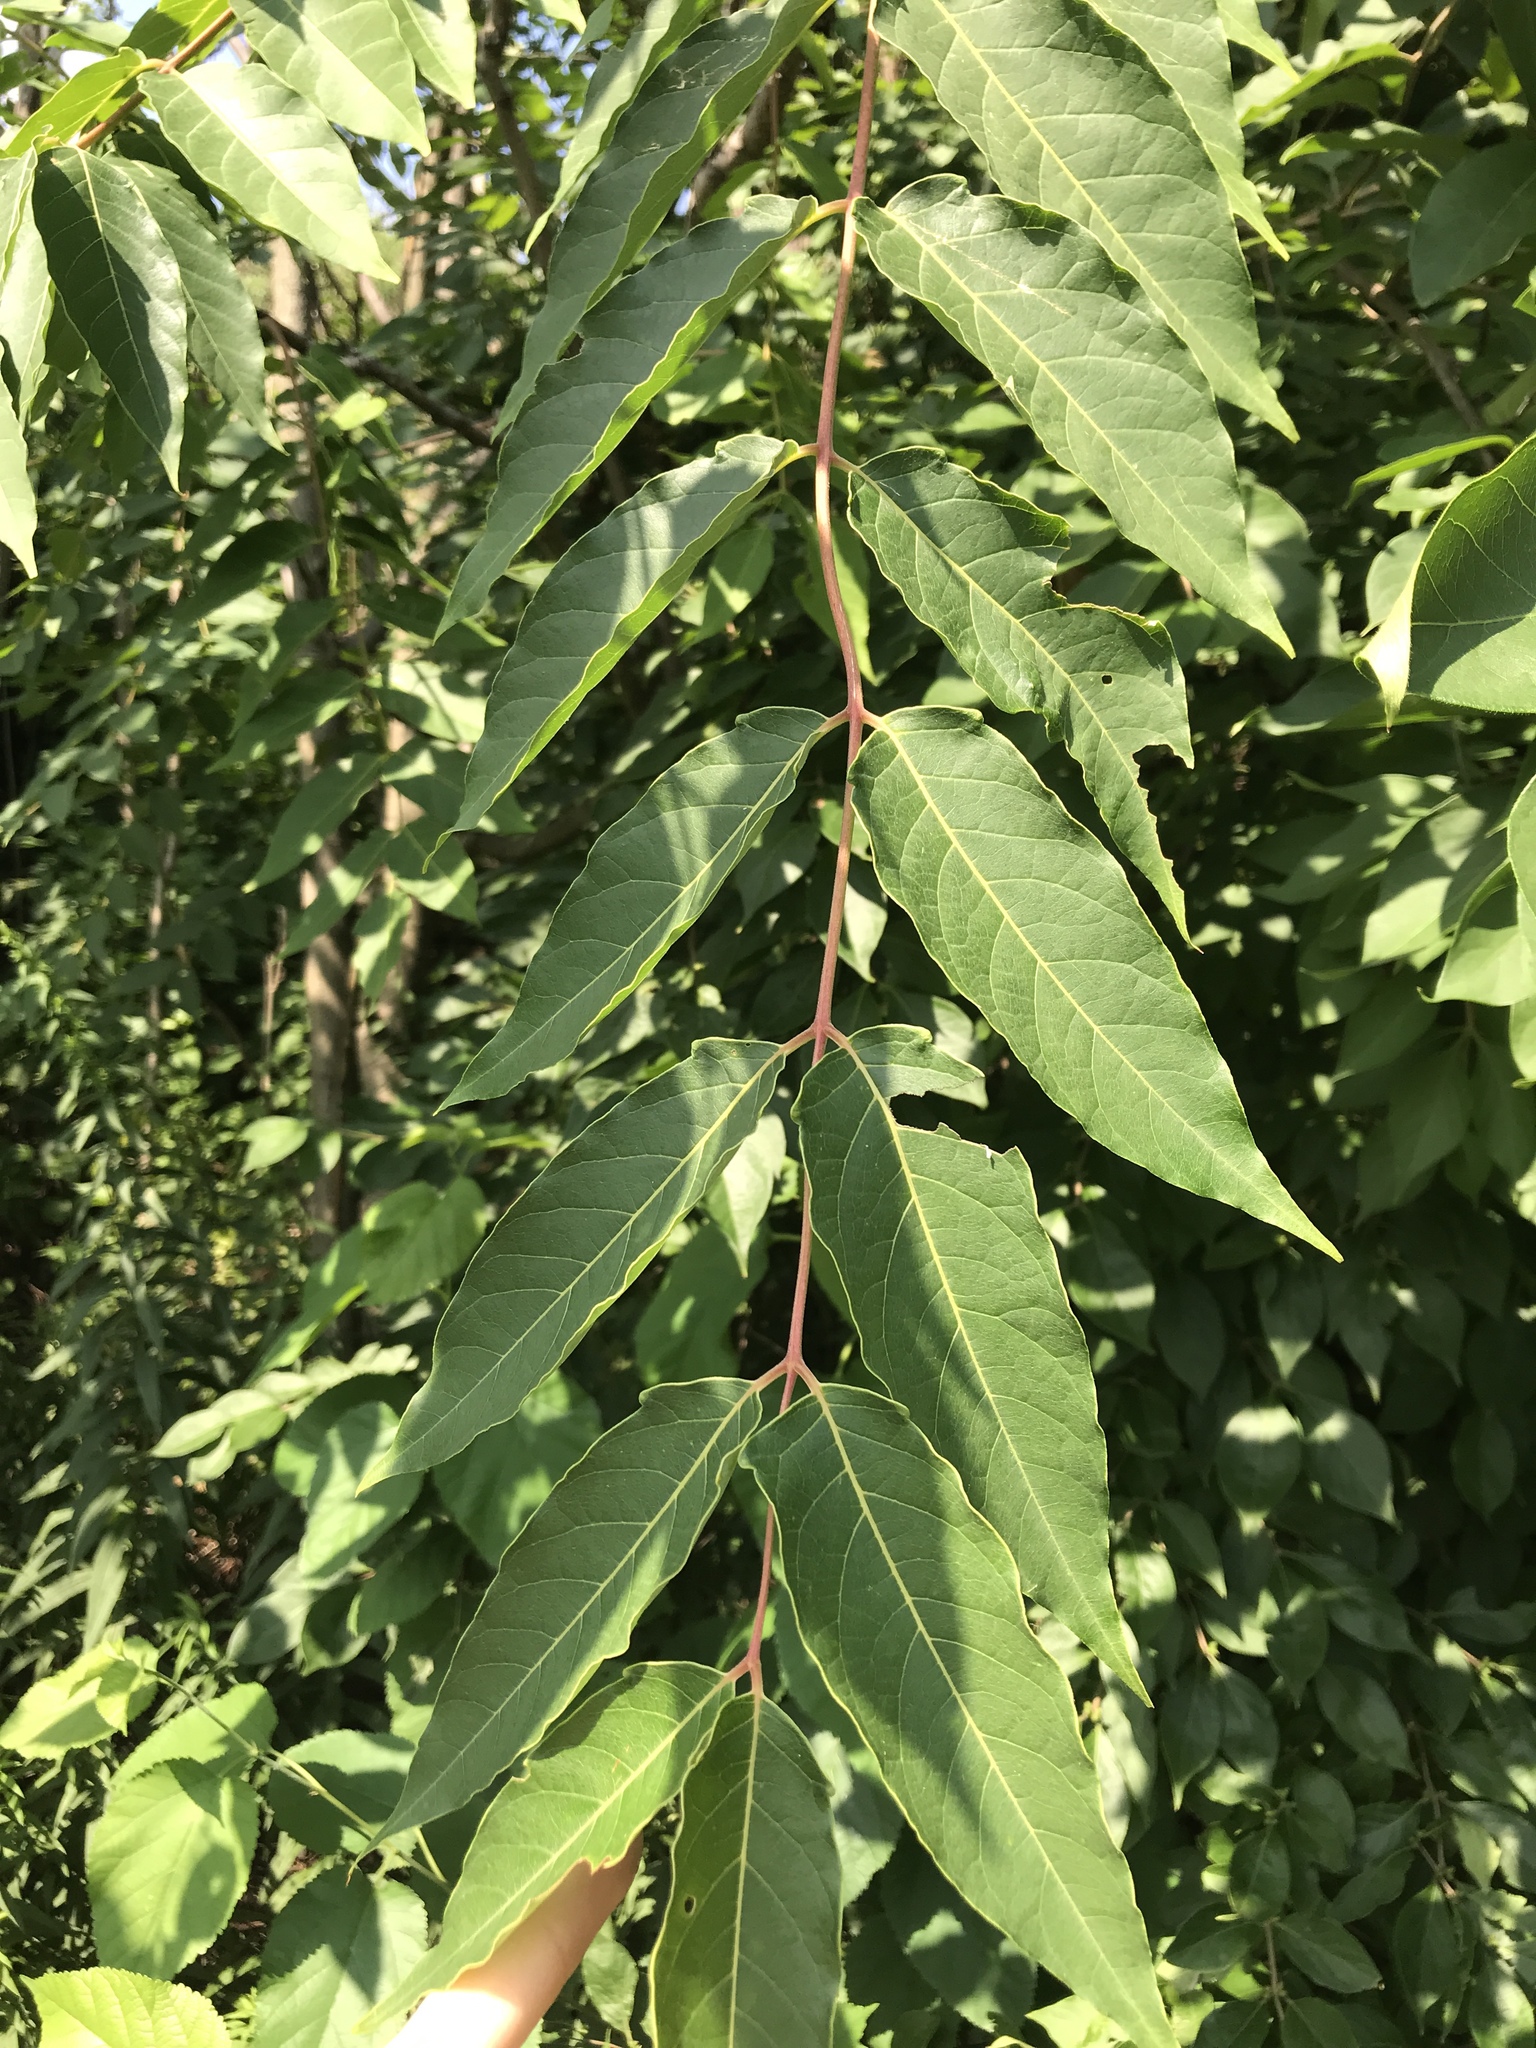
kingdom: Plantae
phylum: Tracheophyta
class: Magnoliopsida
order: Sapindales
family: Simaroubaceae
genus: Ailanthus
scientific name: Ailanthus altissima
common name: Tree-of-heaven
